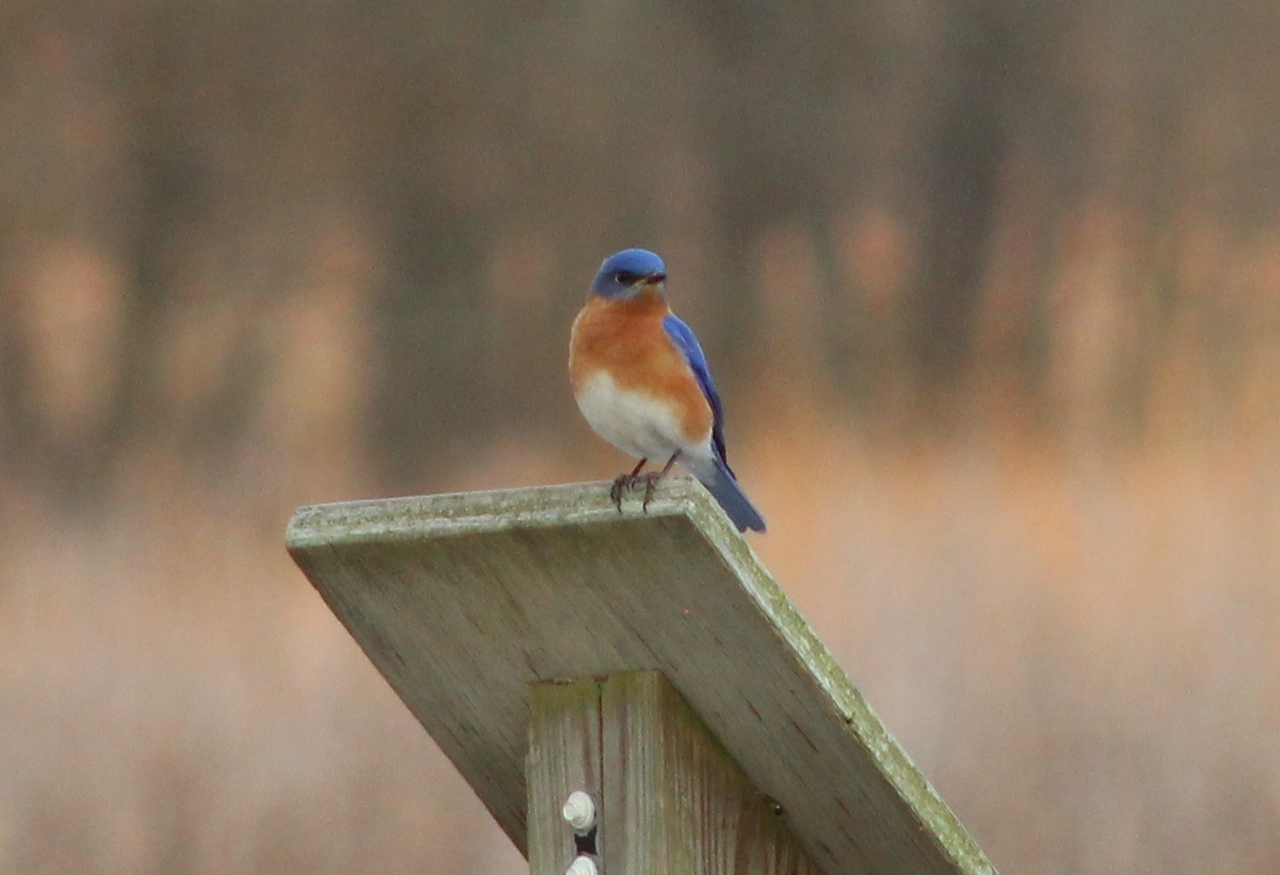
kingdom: Animalia
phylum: Chordata
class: Aves
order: Passeriformes
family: Turdidae
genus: Sialia
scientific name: Sialia sialis
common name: Eastern bluebird
